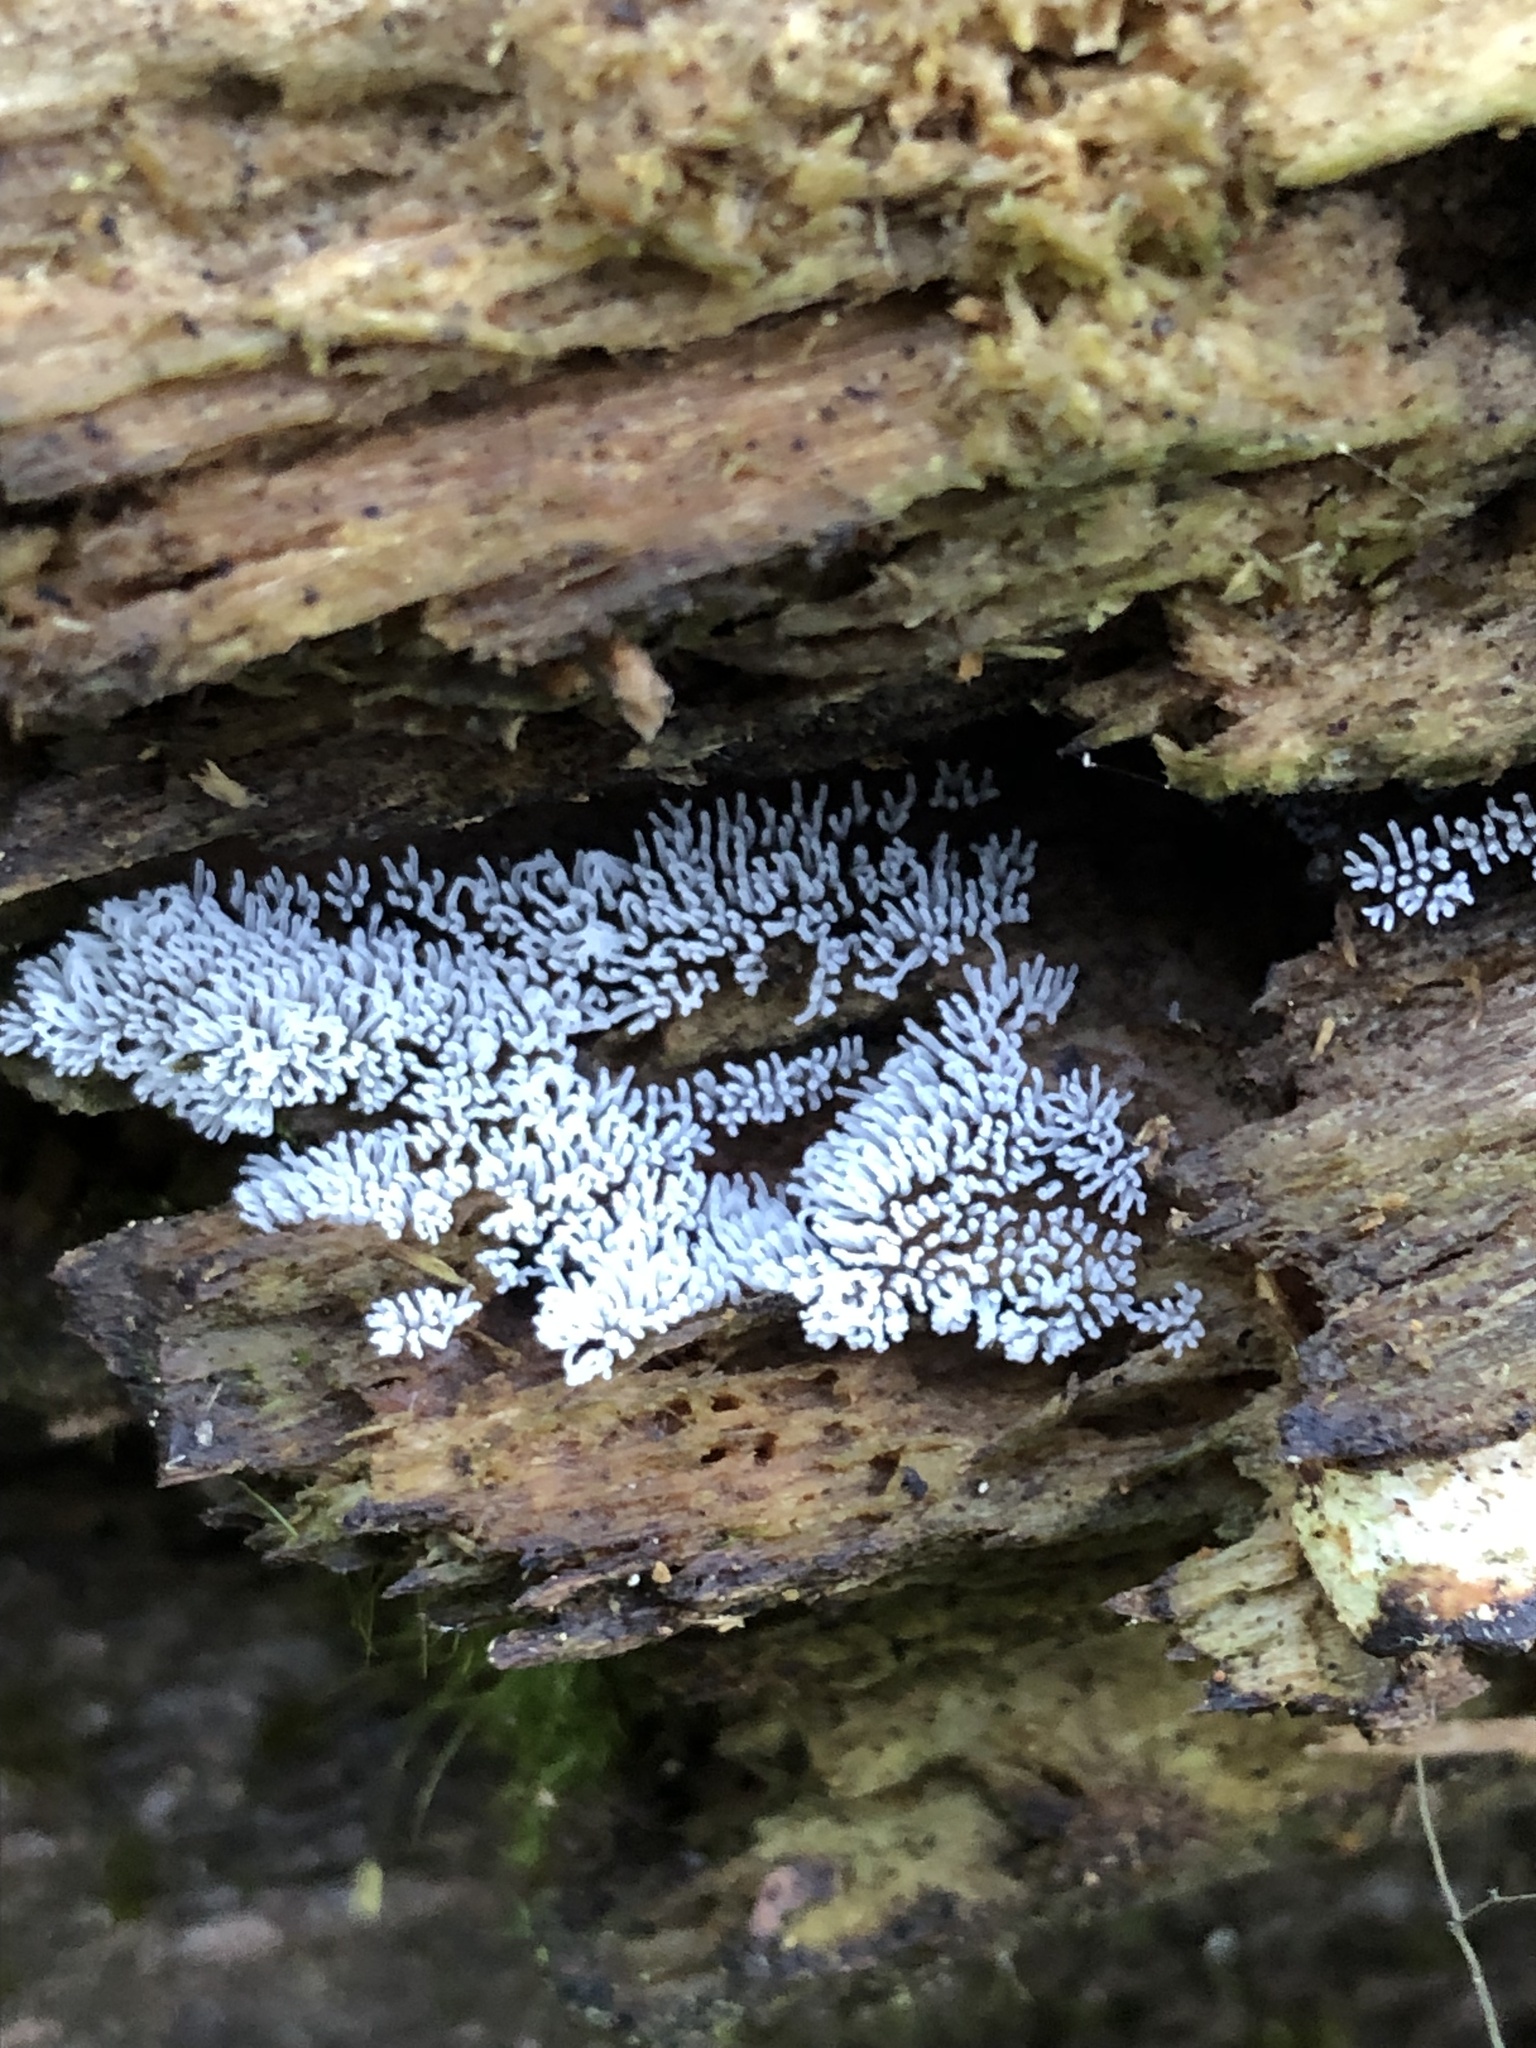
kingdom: Protozoa
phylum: Mycetozoa
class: Protosteliomycetes
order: Ceratiomyxales
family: Ceratiomyxaceae
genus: Ceratiomyxa
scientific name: Ceratiomyxa fruticulosa
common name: Honeycomb coral slime mold
